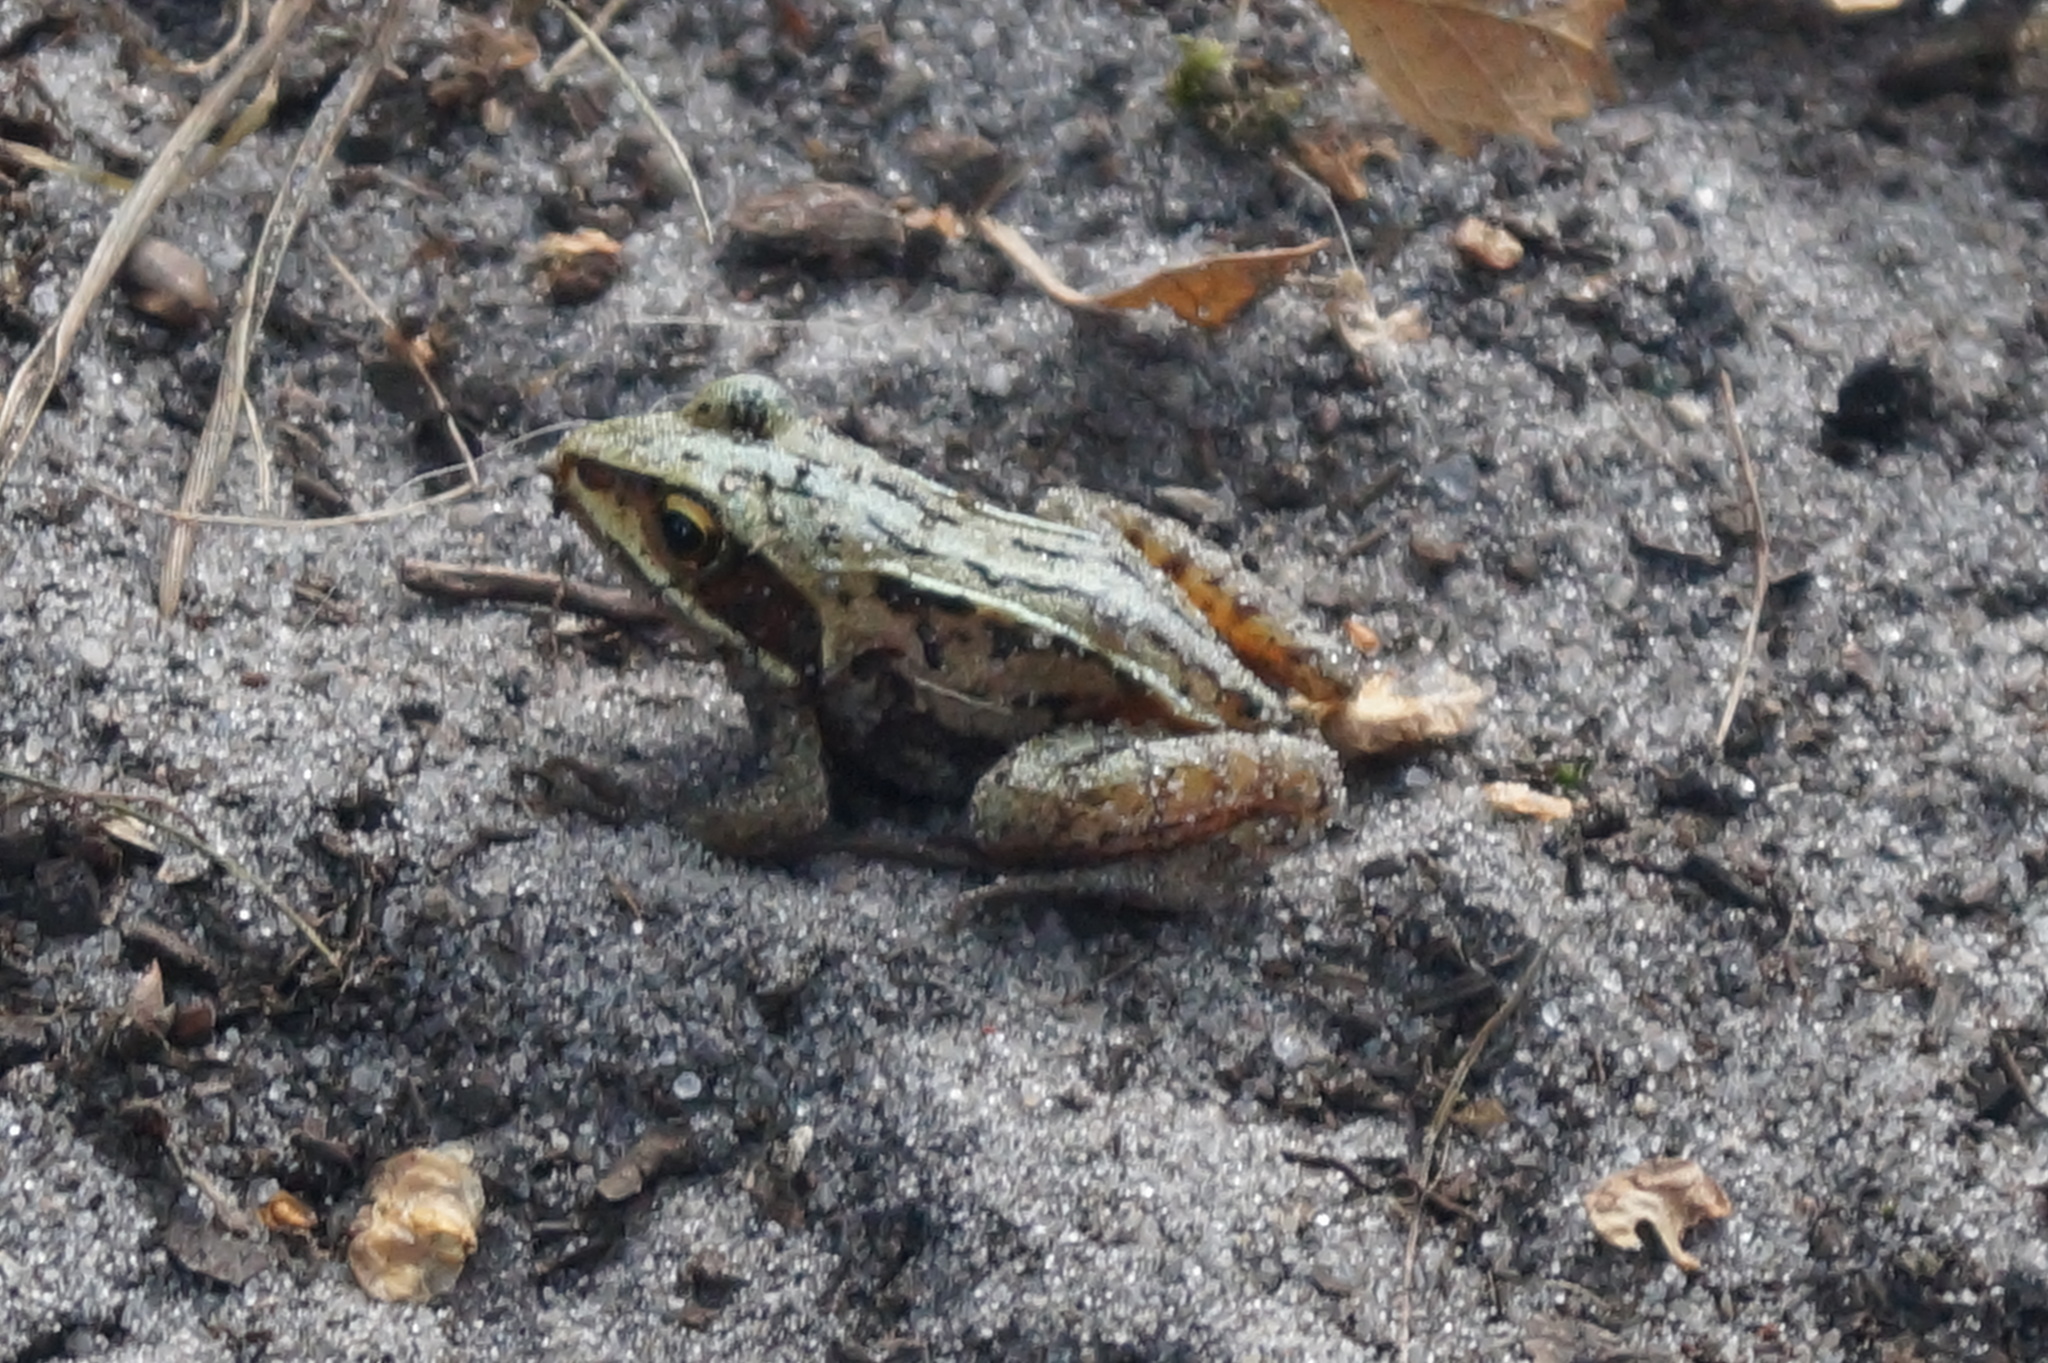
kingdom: Animalia
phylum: Chordata
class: Amphibia
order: Anura
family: Ranidae
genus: Rana
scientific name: Rana arvalis
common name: Moor frog
